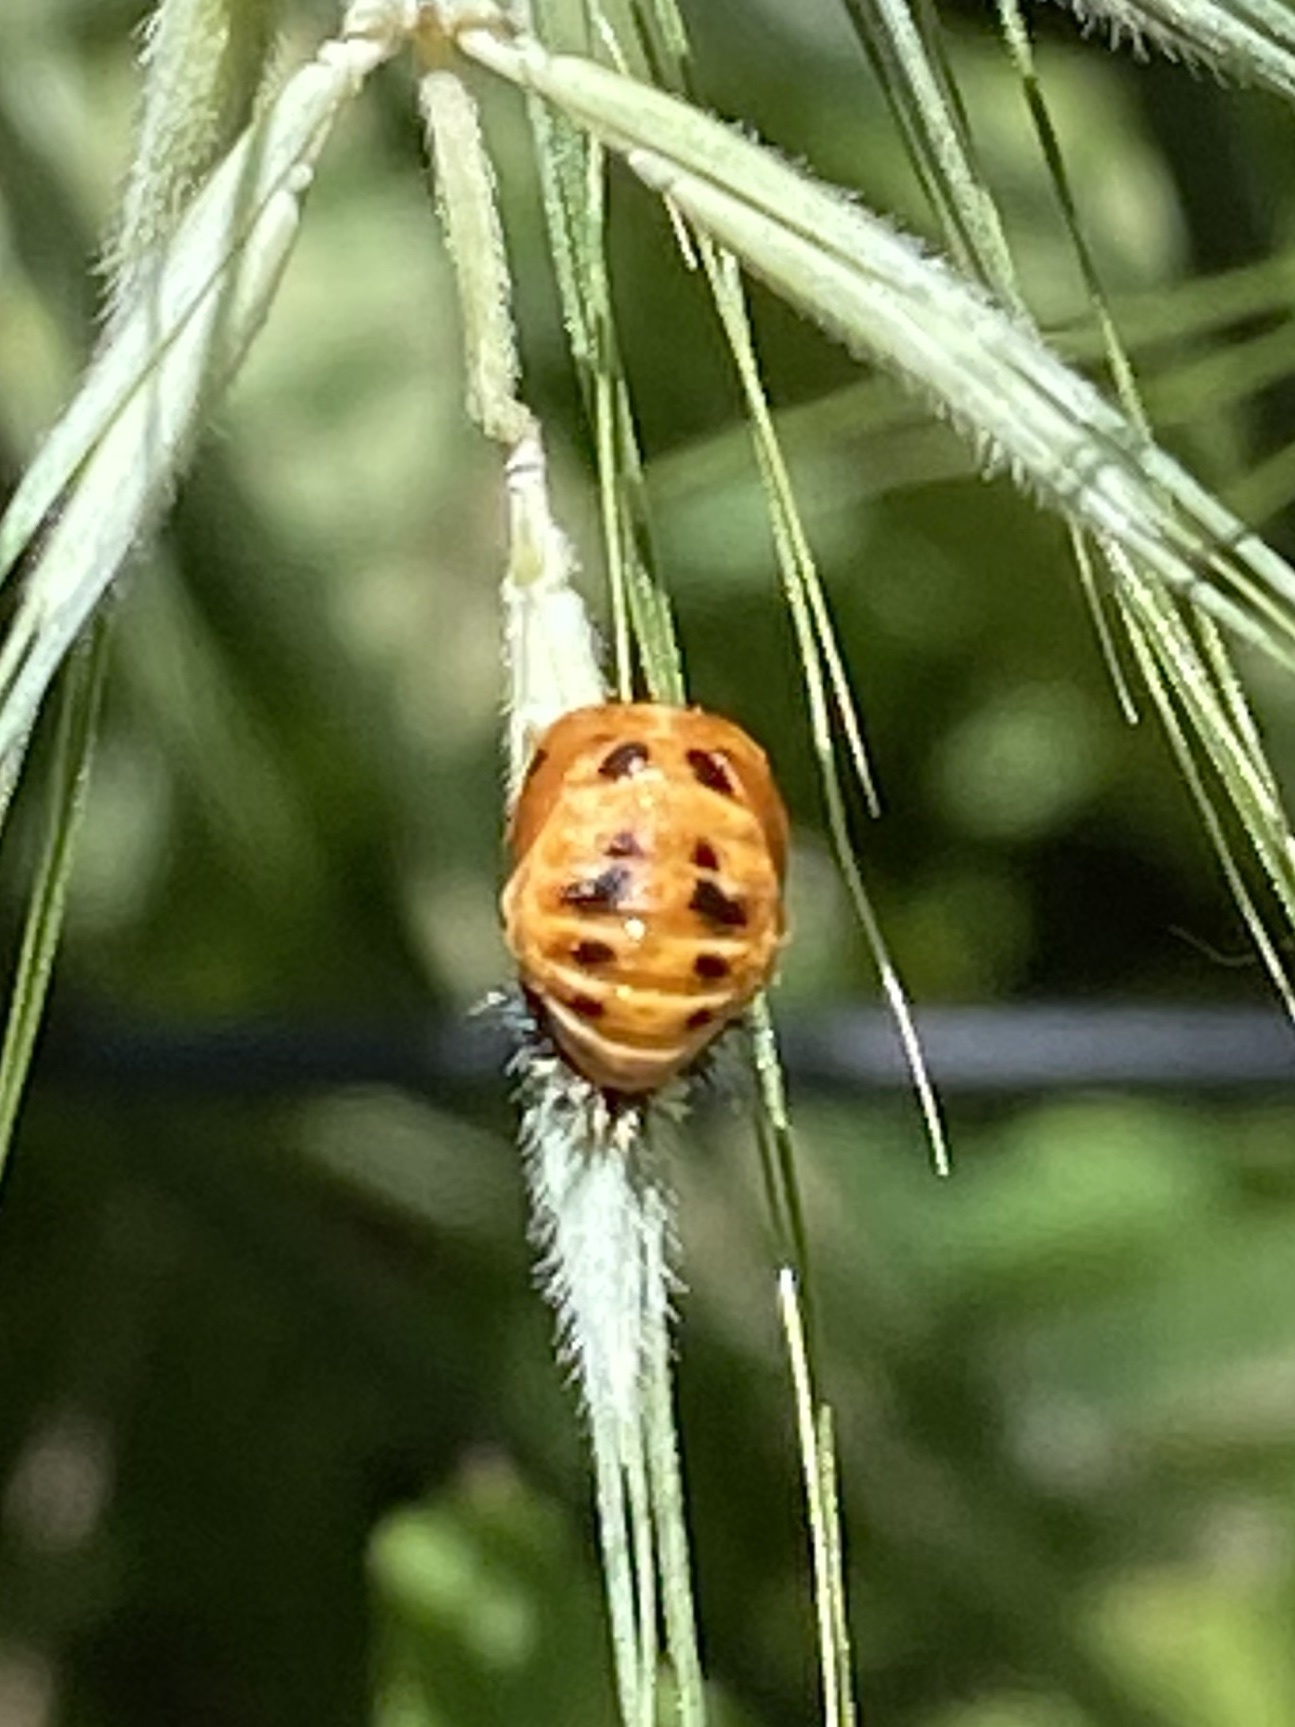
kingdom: Animalia
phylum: Arthropoda
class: Insecta
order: Coleoptera
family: Coccinellidae
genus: Harmonia
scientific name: Harmonia axyridis
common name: Harlequin ladybird
